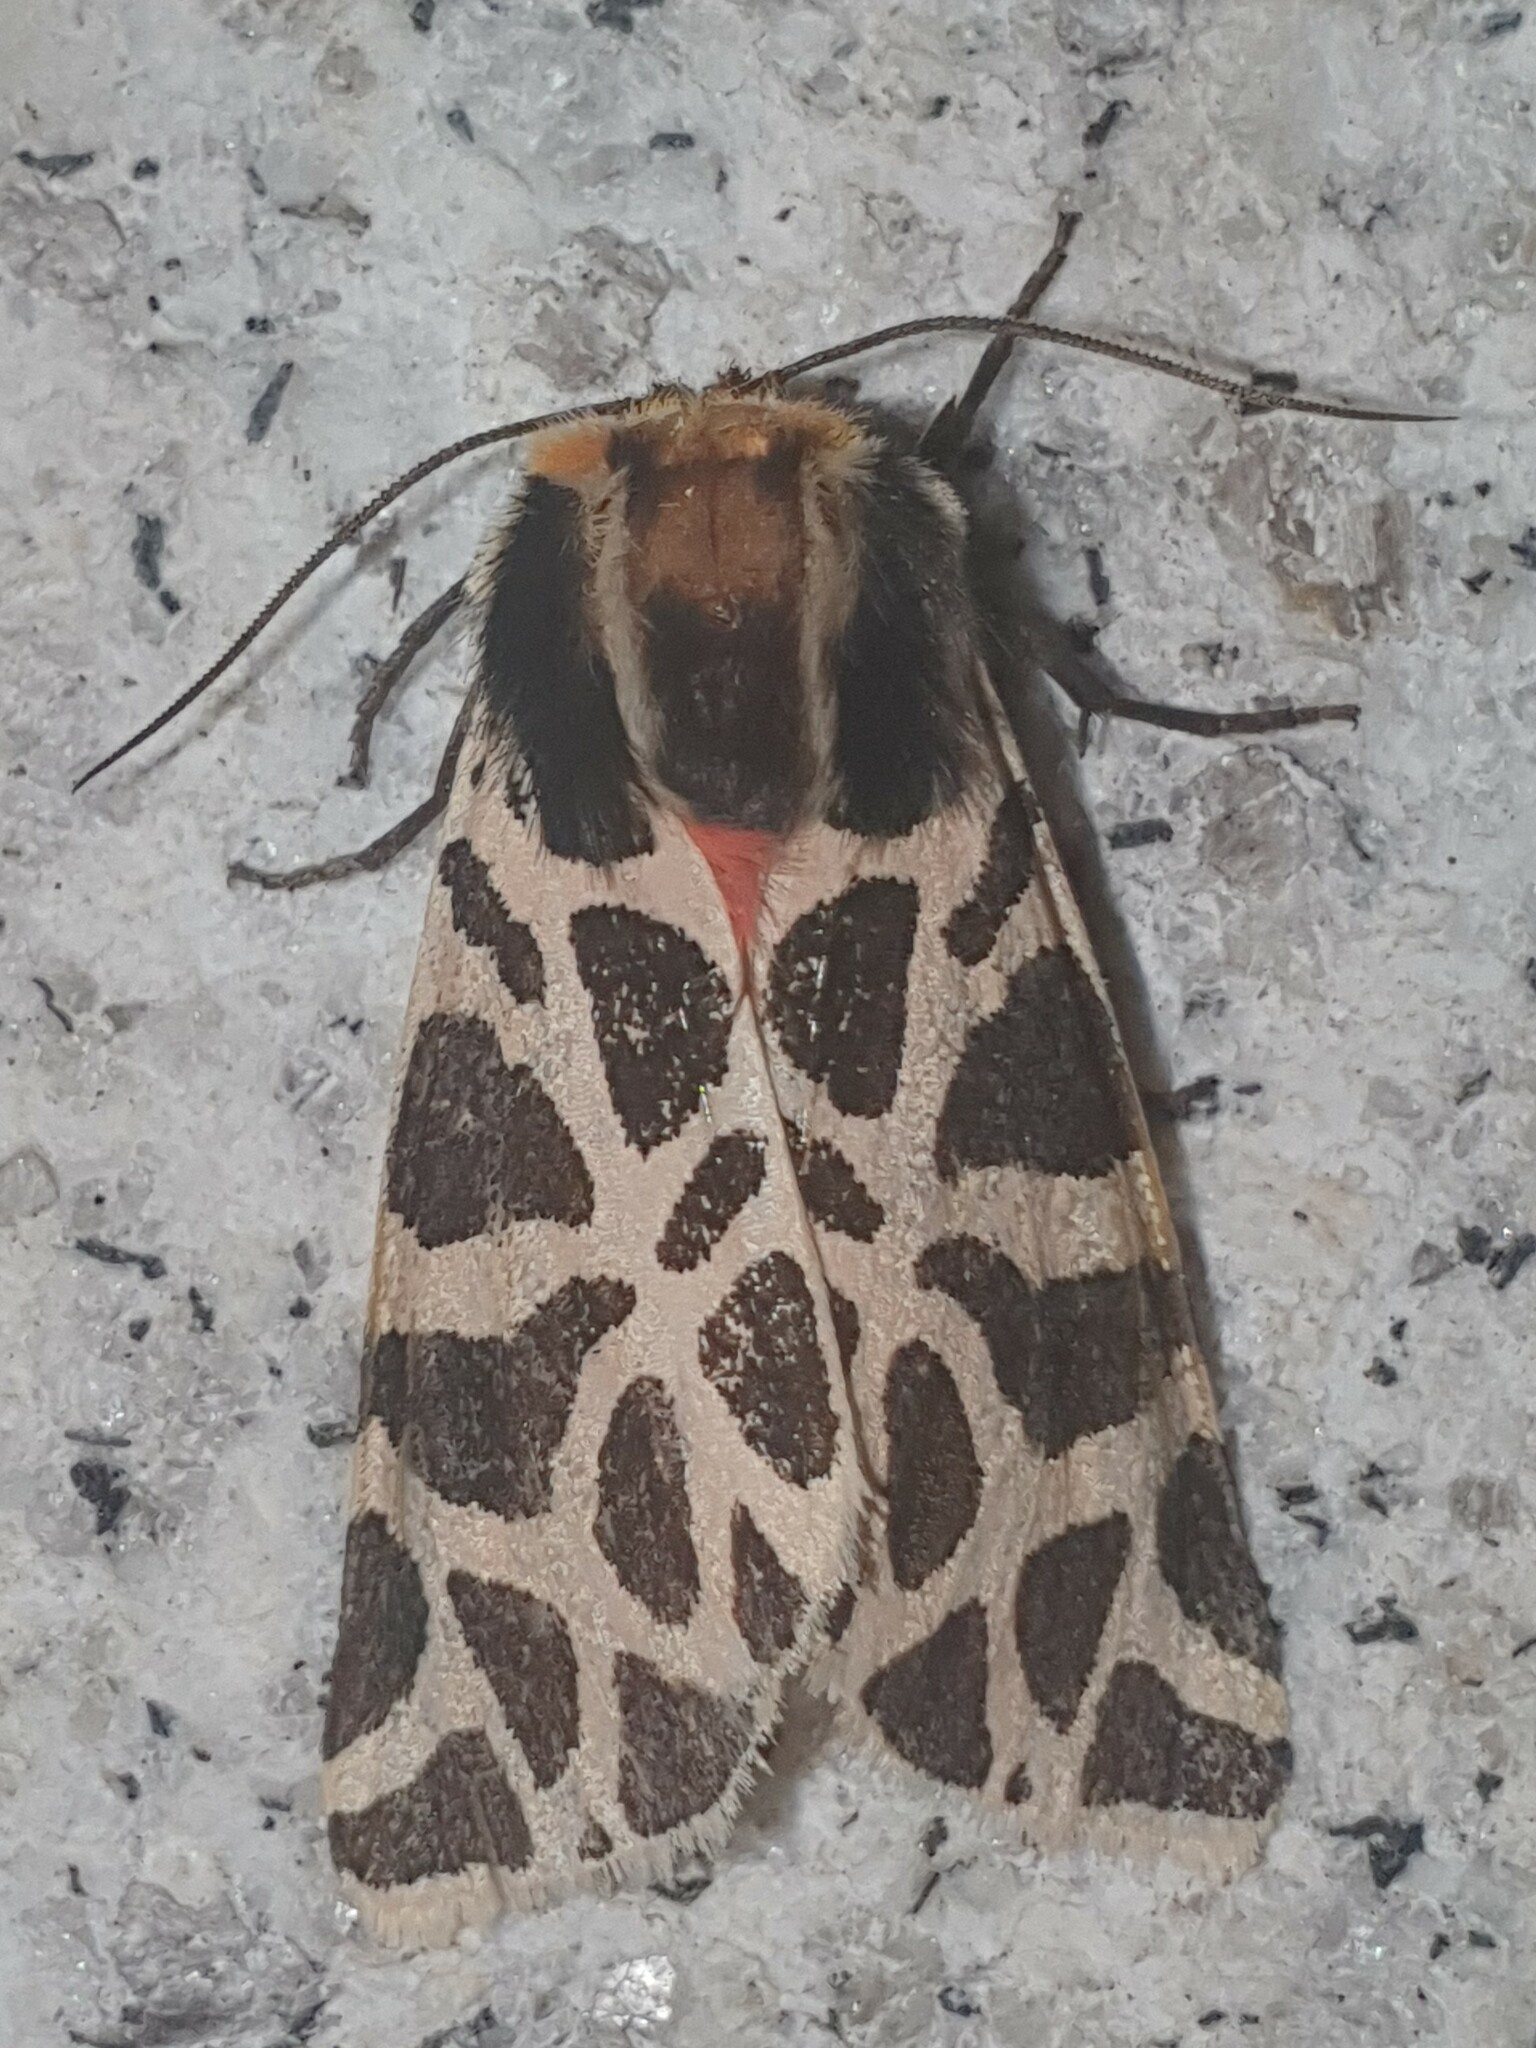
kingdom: Animalia
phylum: Arthropoda
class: Insecta
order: Lepidoptera
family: Erebidae
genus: Cymbalophora
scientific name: Cymbalophora pudica
